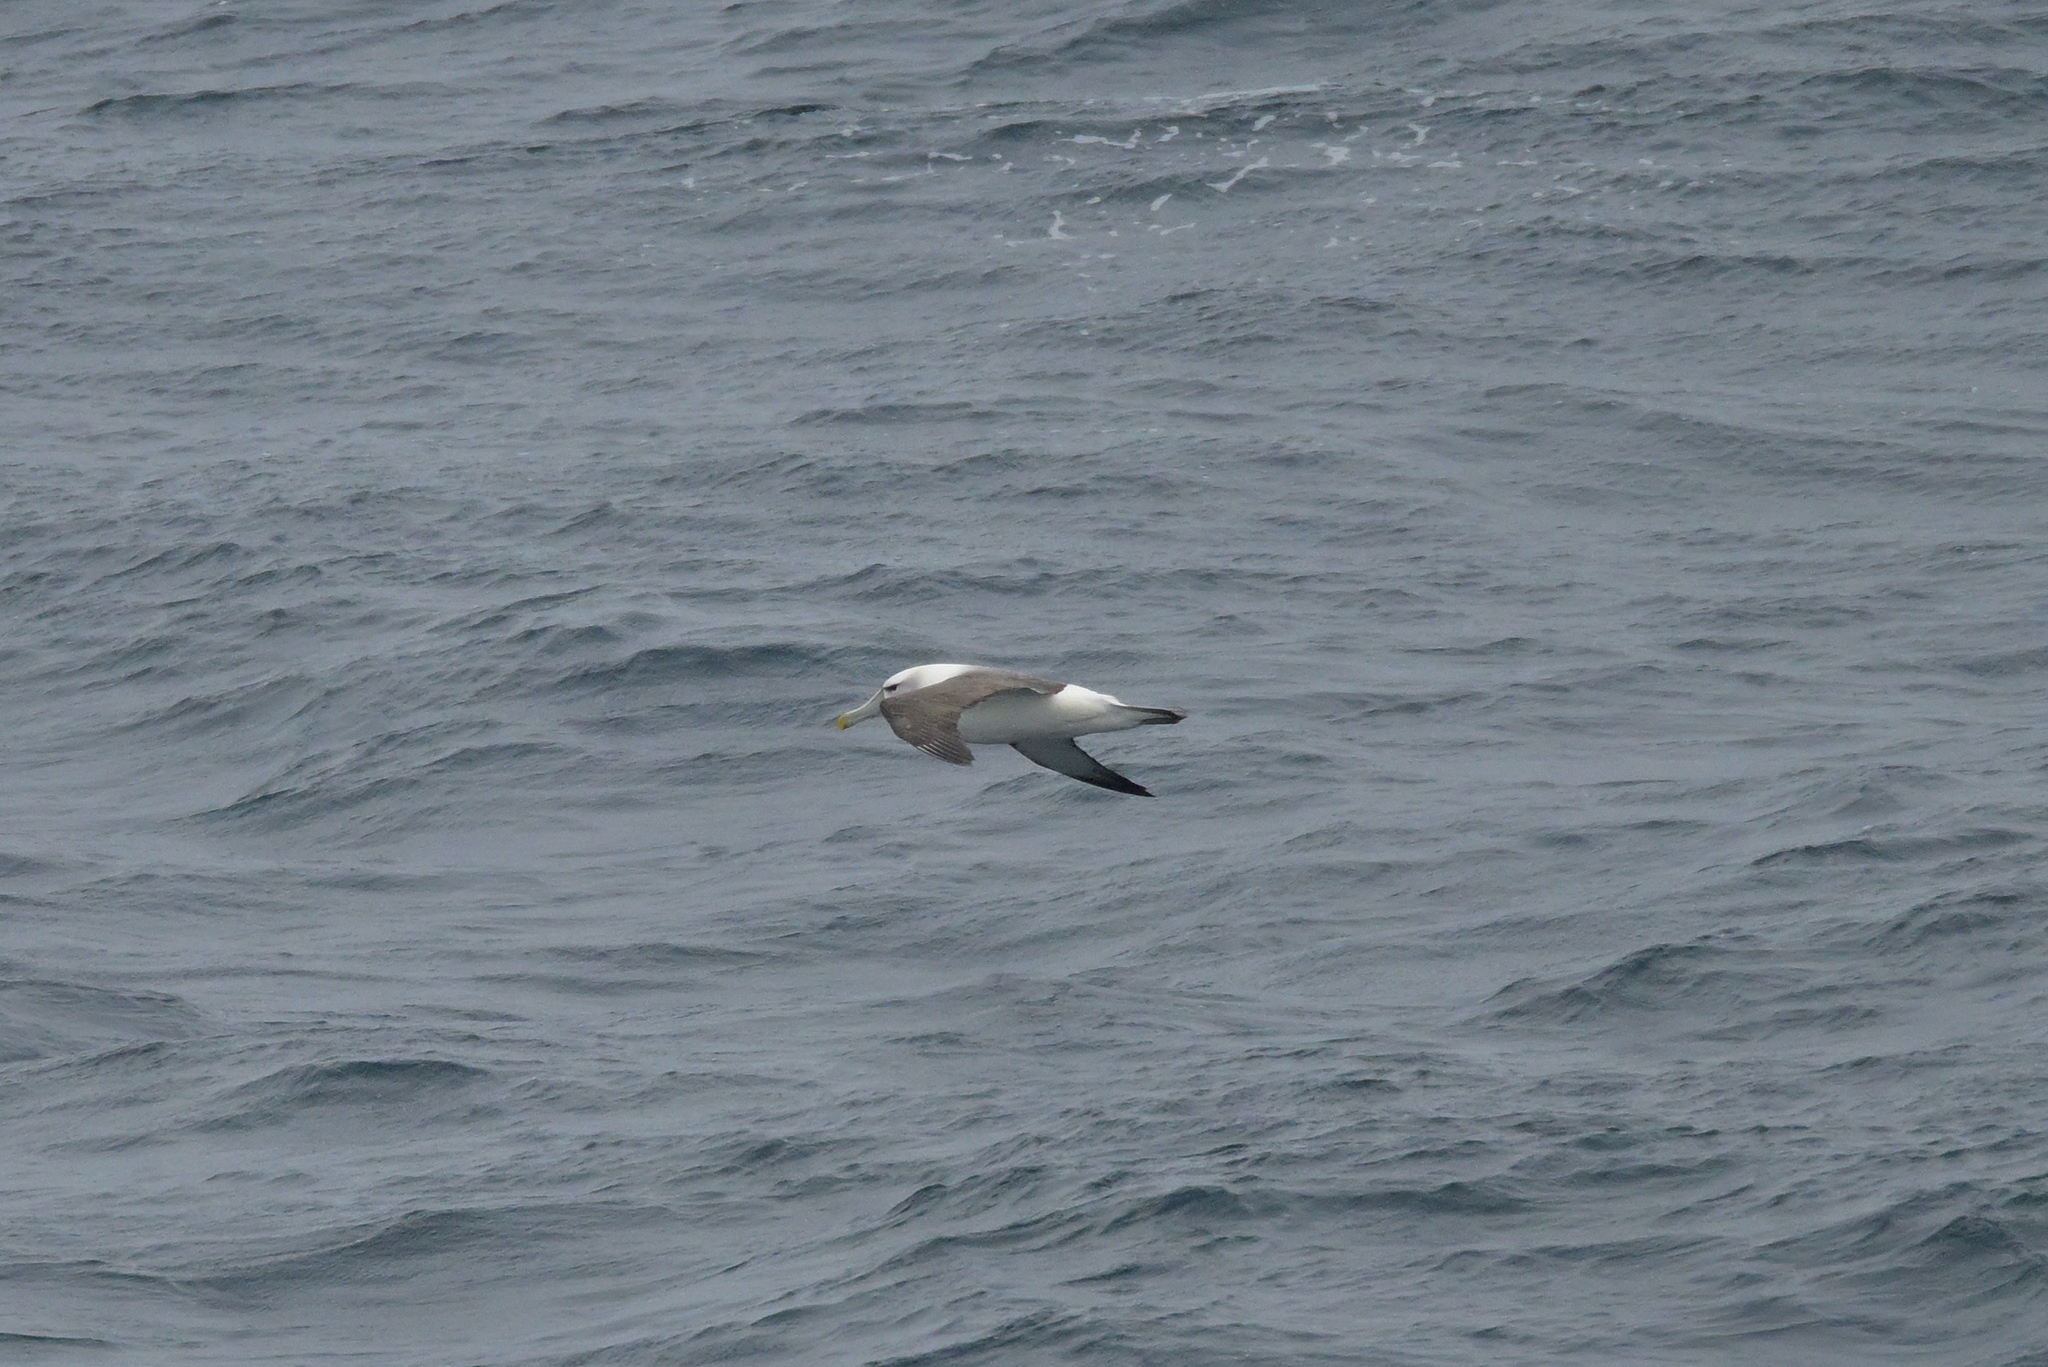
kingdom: Animalia
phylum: Chordata
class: Aves
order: Procellariiformes
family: Diomedeidae
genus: Thalassarche
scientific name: Thalassarche cauta
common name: Shy albatross
